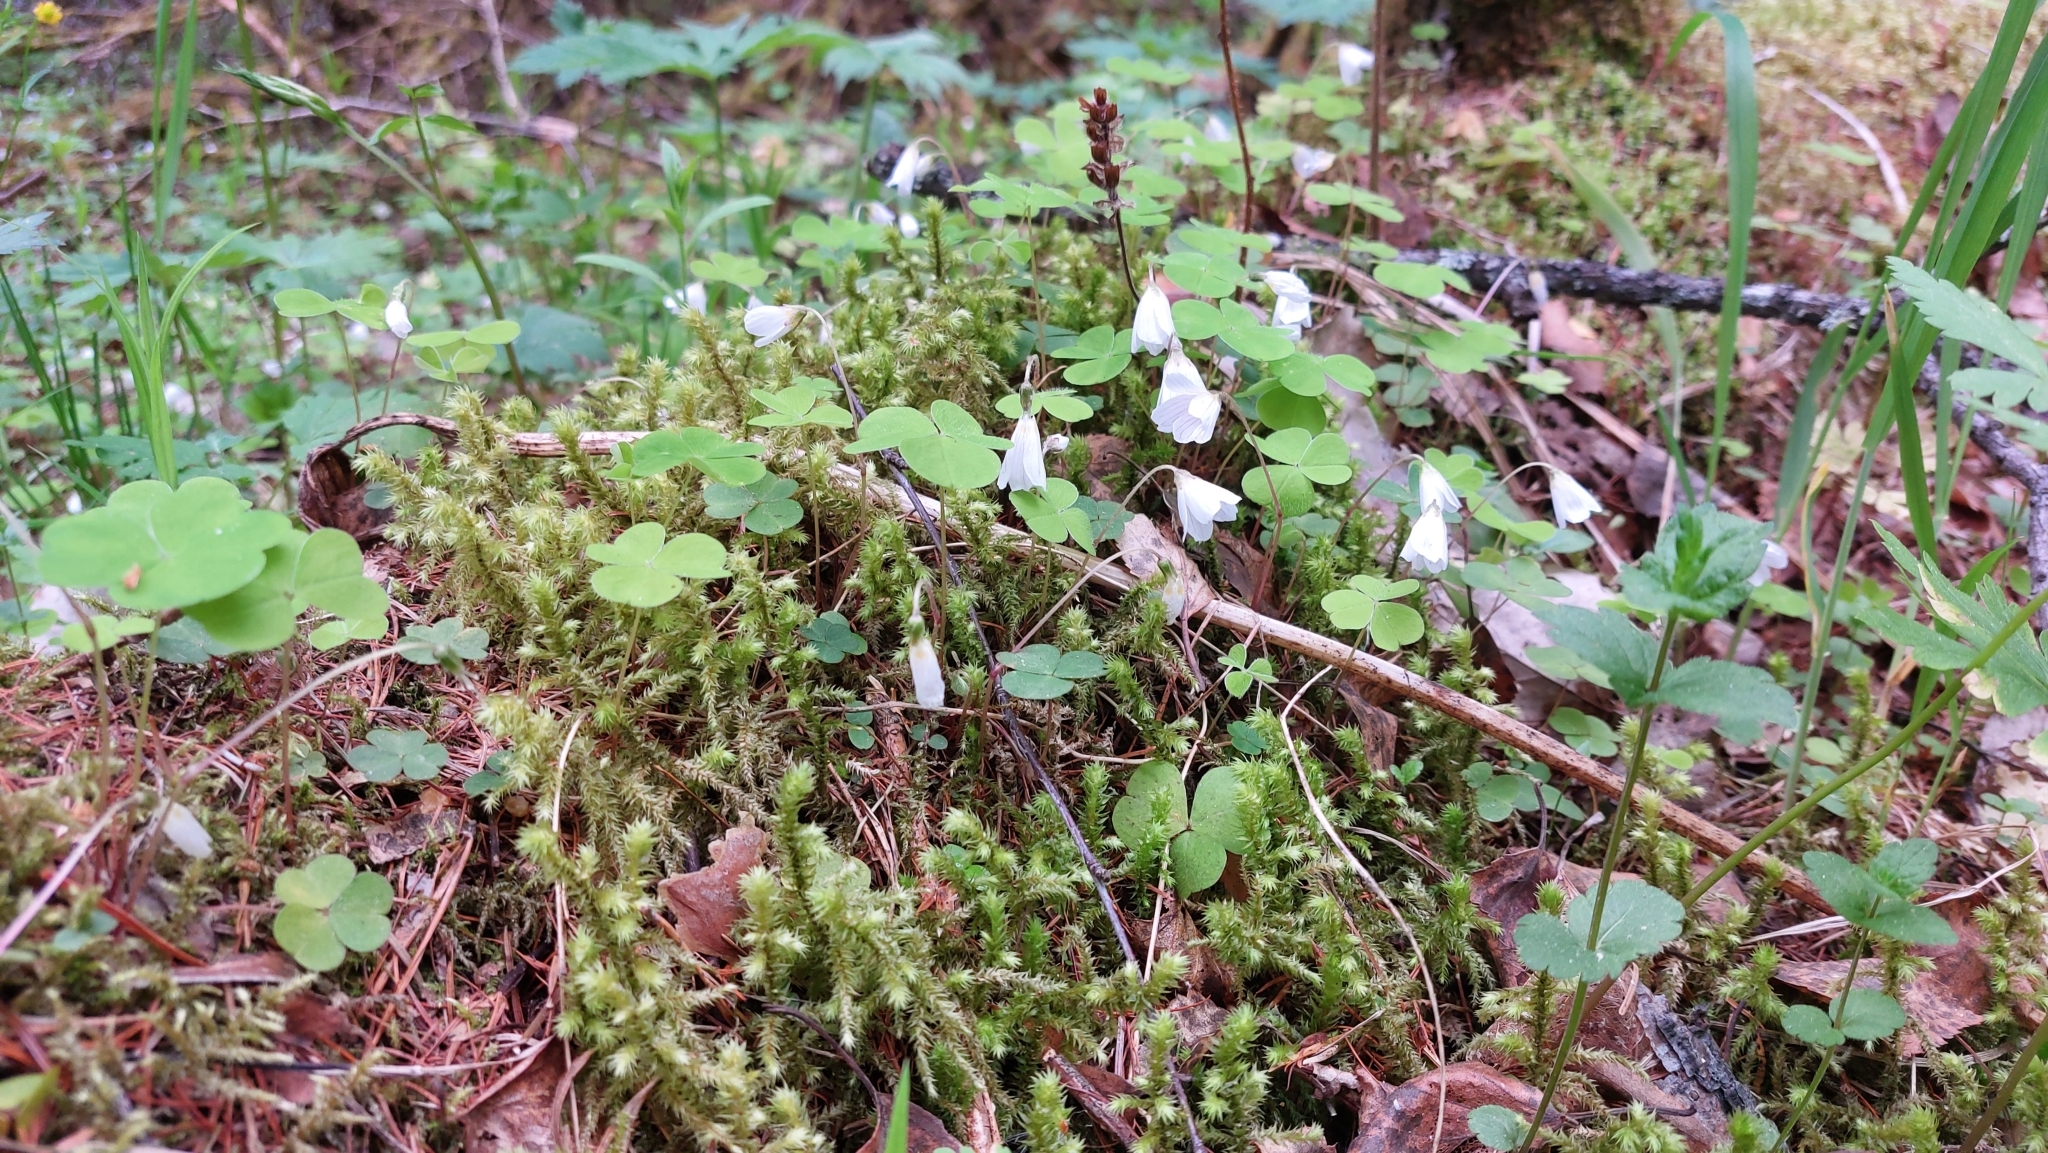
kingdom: Plantae
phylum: Tracheophyta
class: Magnoliopsida
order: Oxalidales
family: Oxalidaceae
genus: Oxalis
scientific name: Oxalis acetosella
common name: Wood-sorrel
